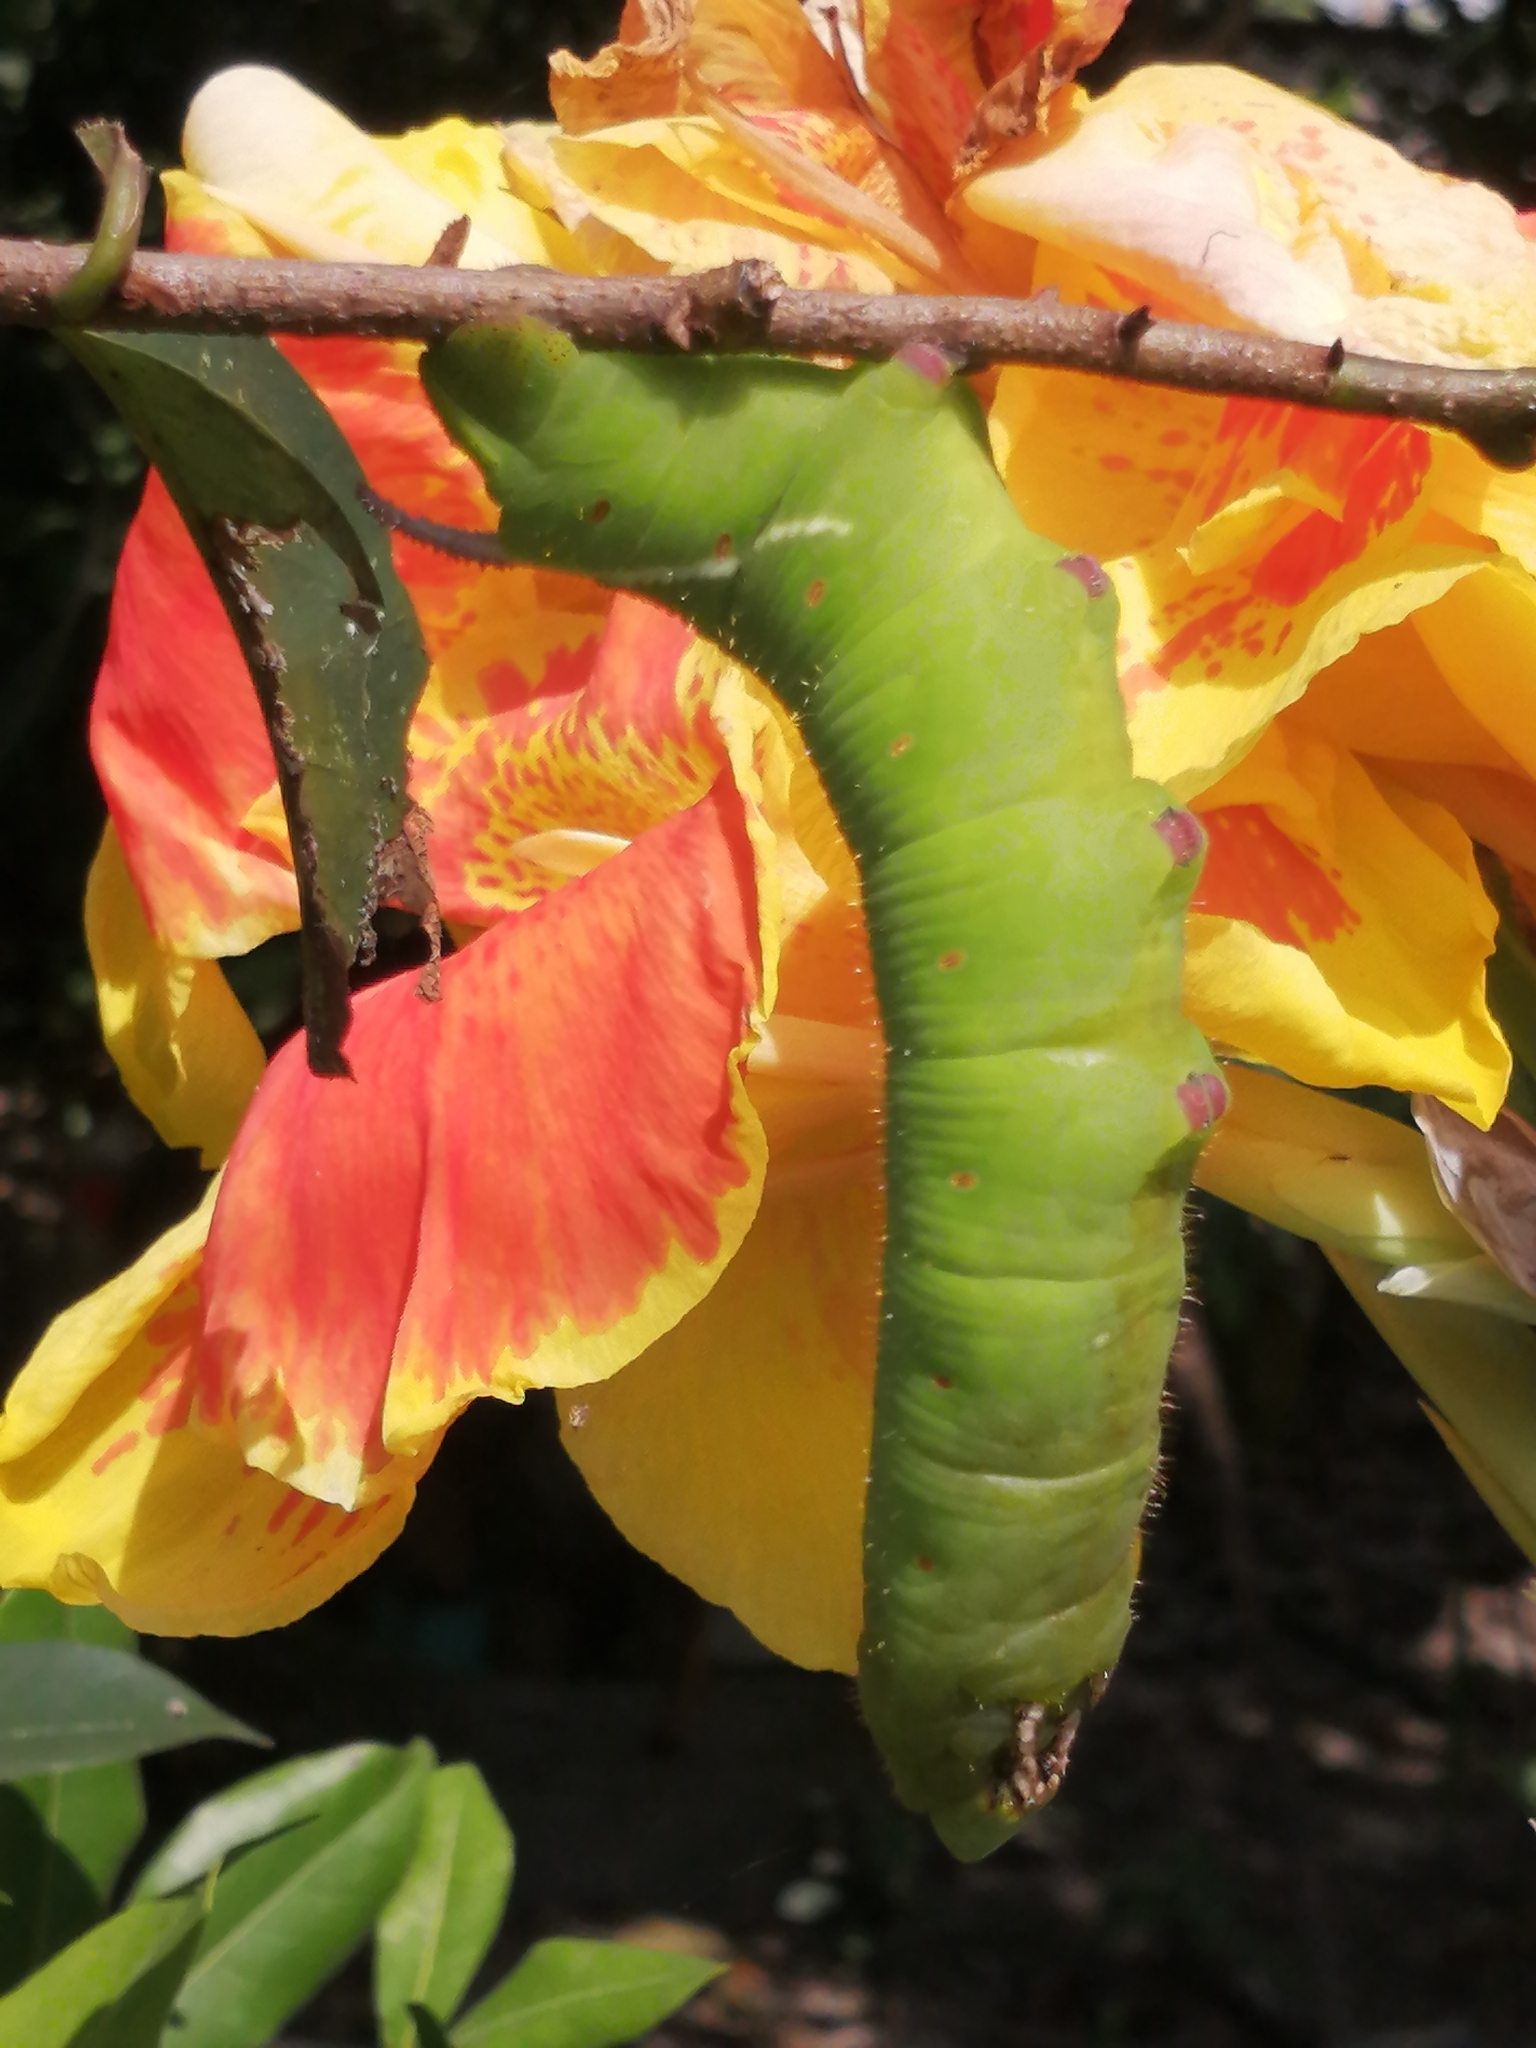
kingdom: Animalia
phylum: Arthropoda
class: Insecta
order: Lepidoptera
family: Sphingidae
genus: Cocytius
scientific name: Cocytius antaeus
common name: Giant sphinx
